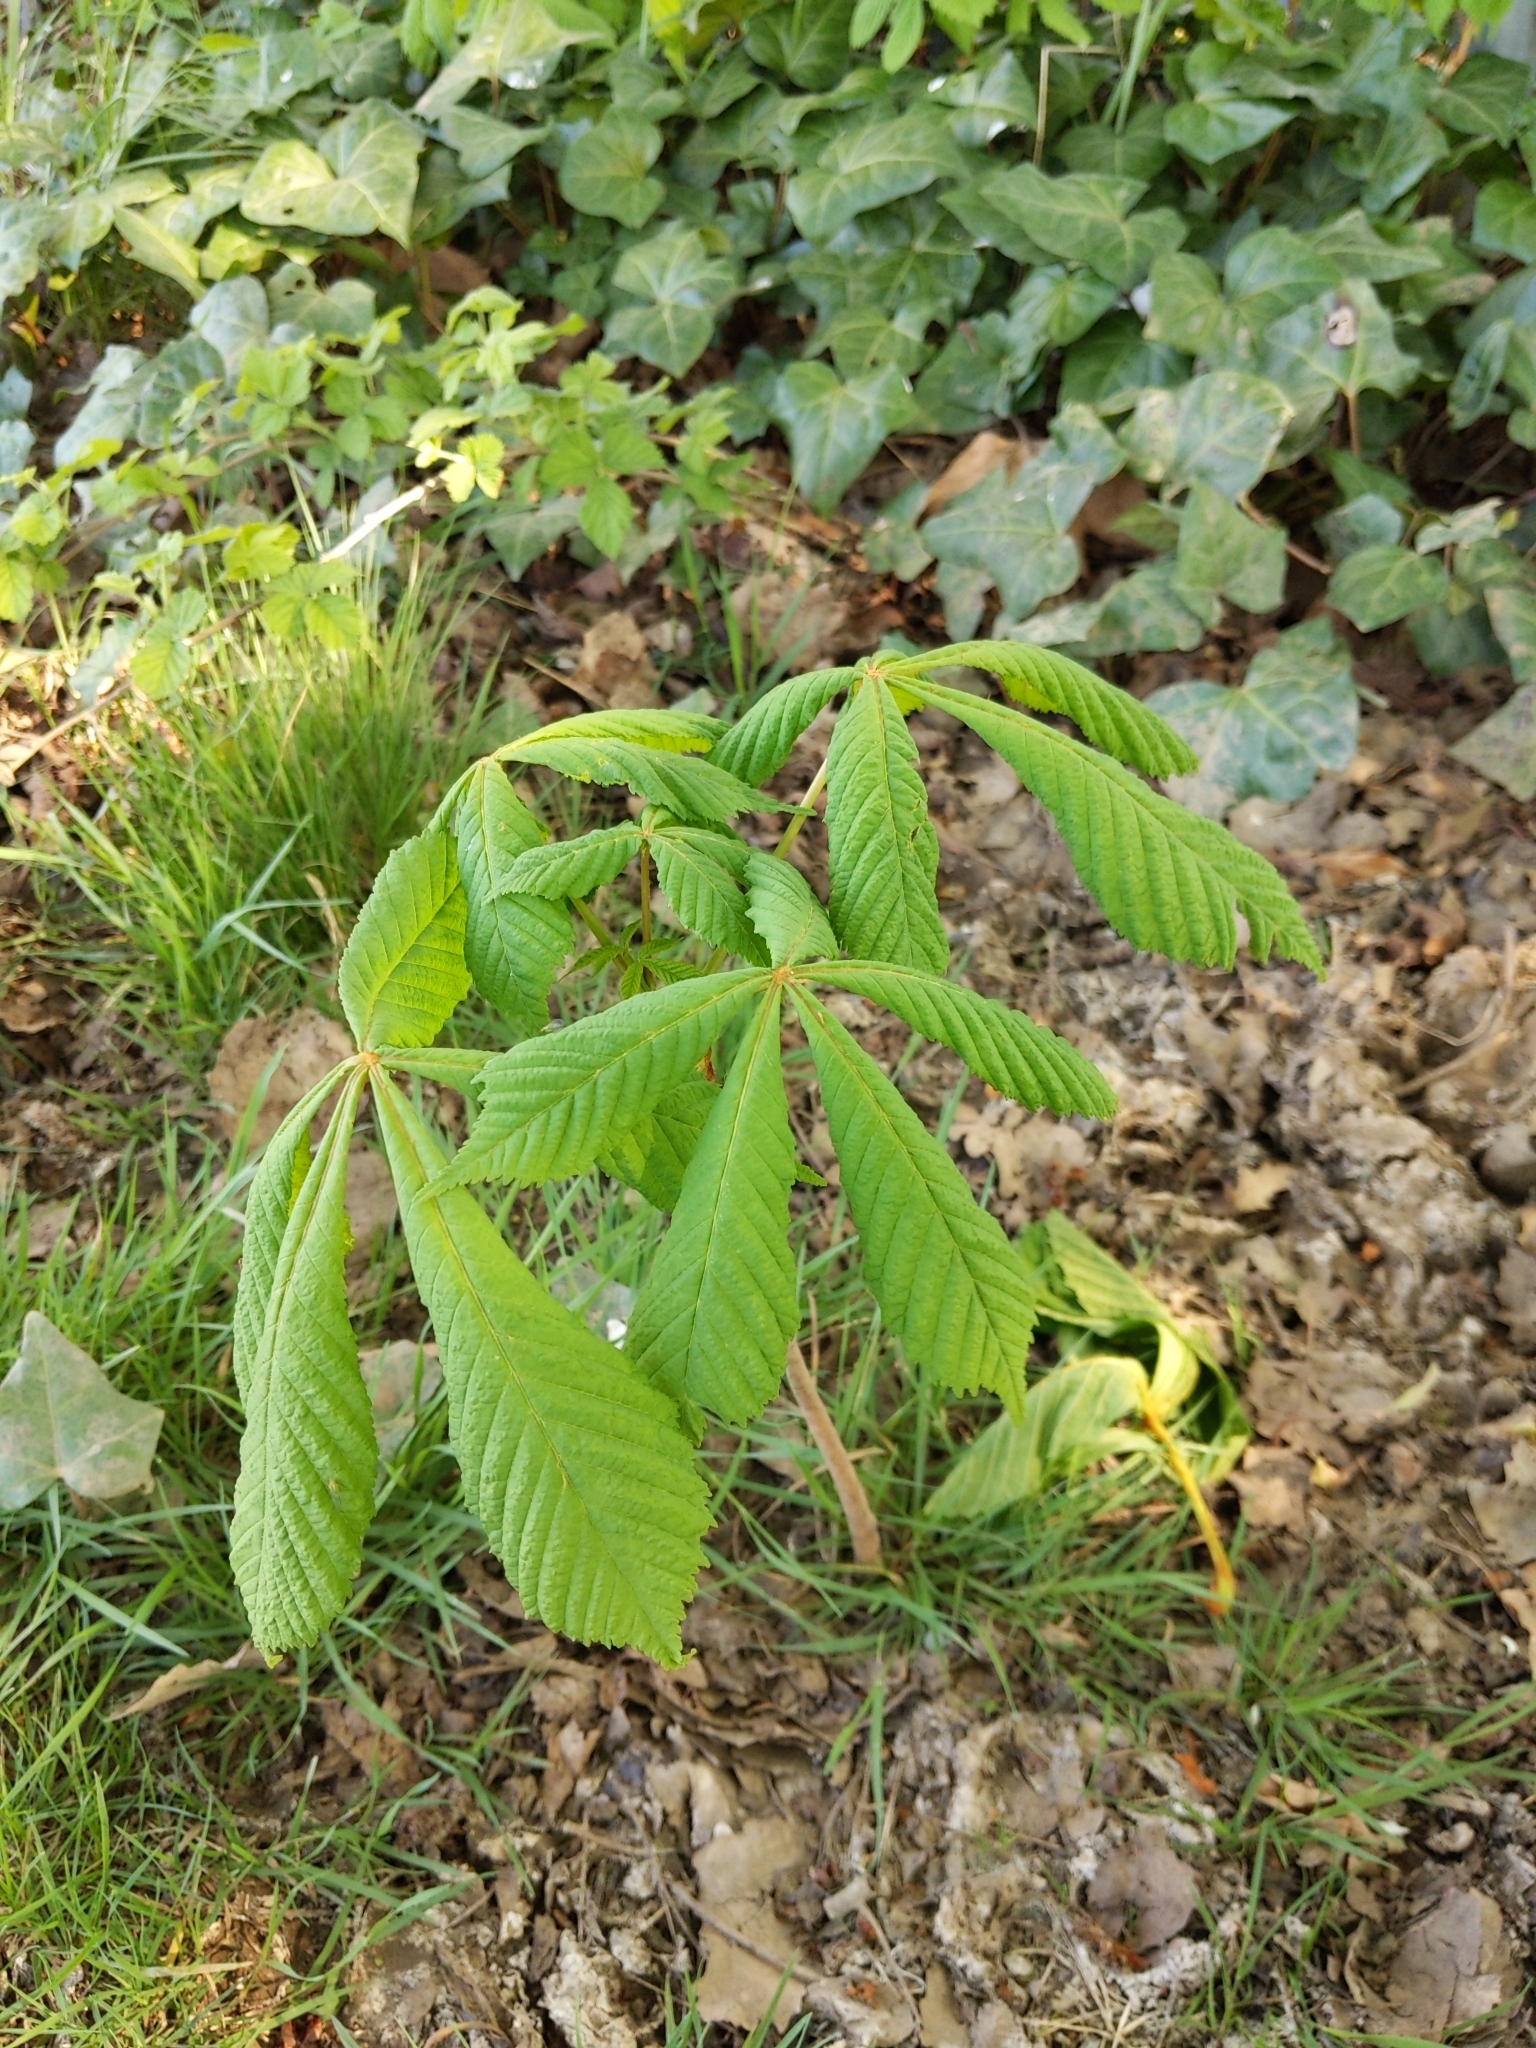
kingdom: Plantae
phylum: Tracheophyta
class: Magnoliopsida
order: Sapindales
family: Sapindaceae
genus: Aesculus
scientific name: Aesculus hippocastanum
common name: Horse-chestnut
